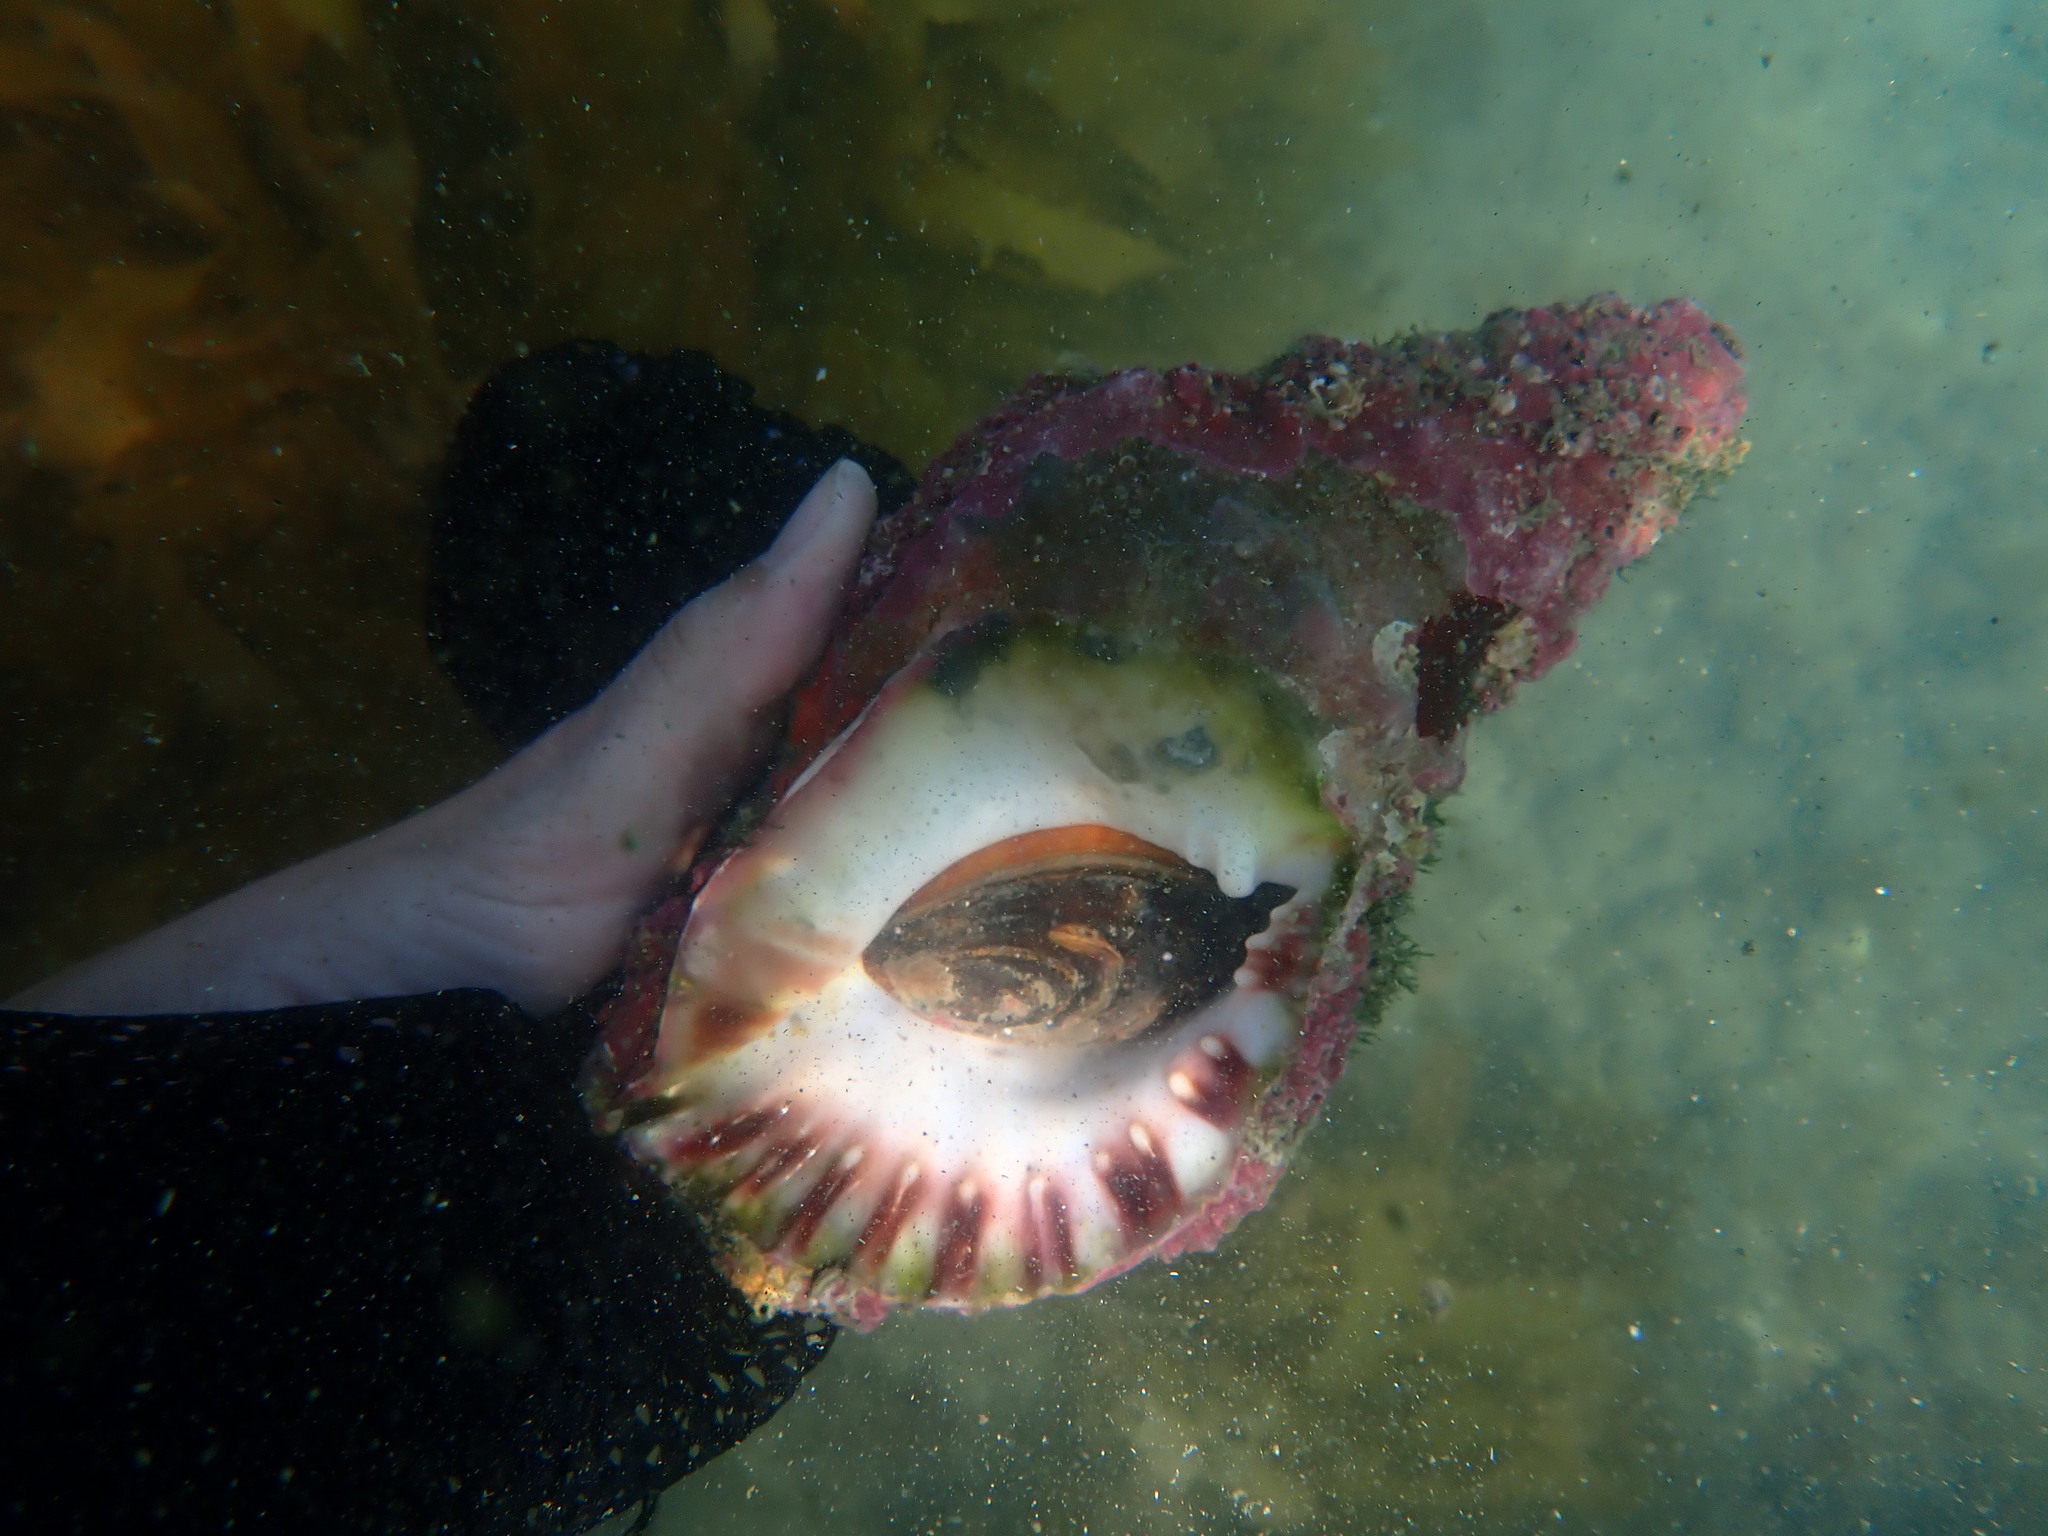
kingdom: Animalia
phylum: Mollusca
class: Gastropoda
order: Littorinimorpha
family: Charoniidae
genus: Charonia
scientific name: Charonia lampas
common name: Knobbed triton
